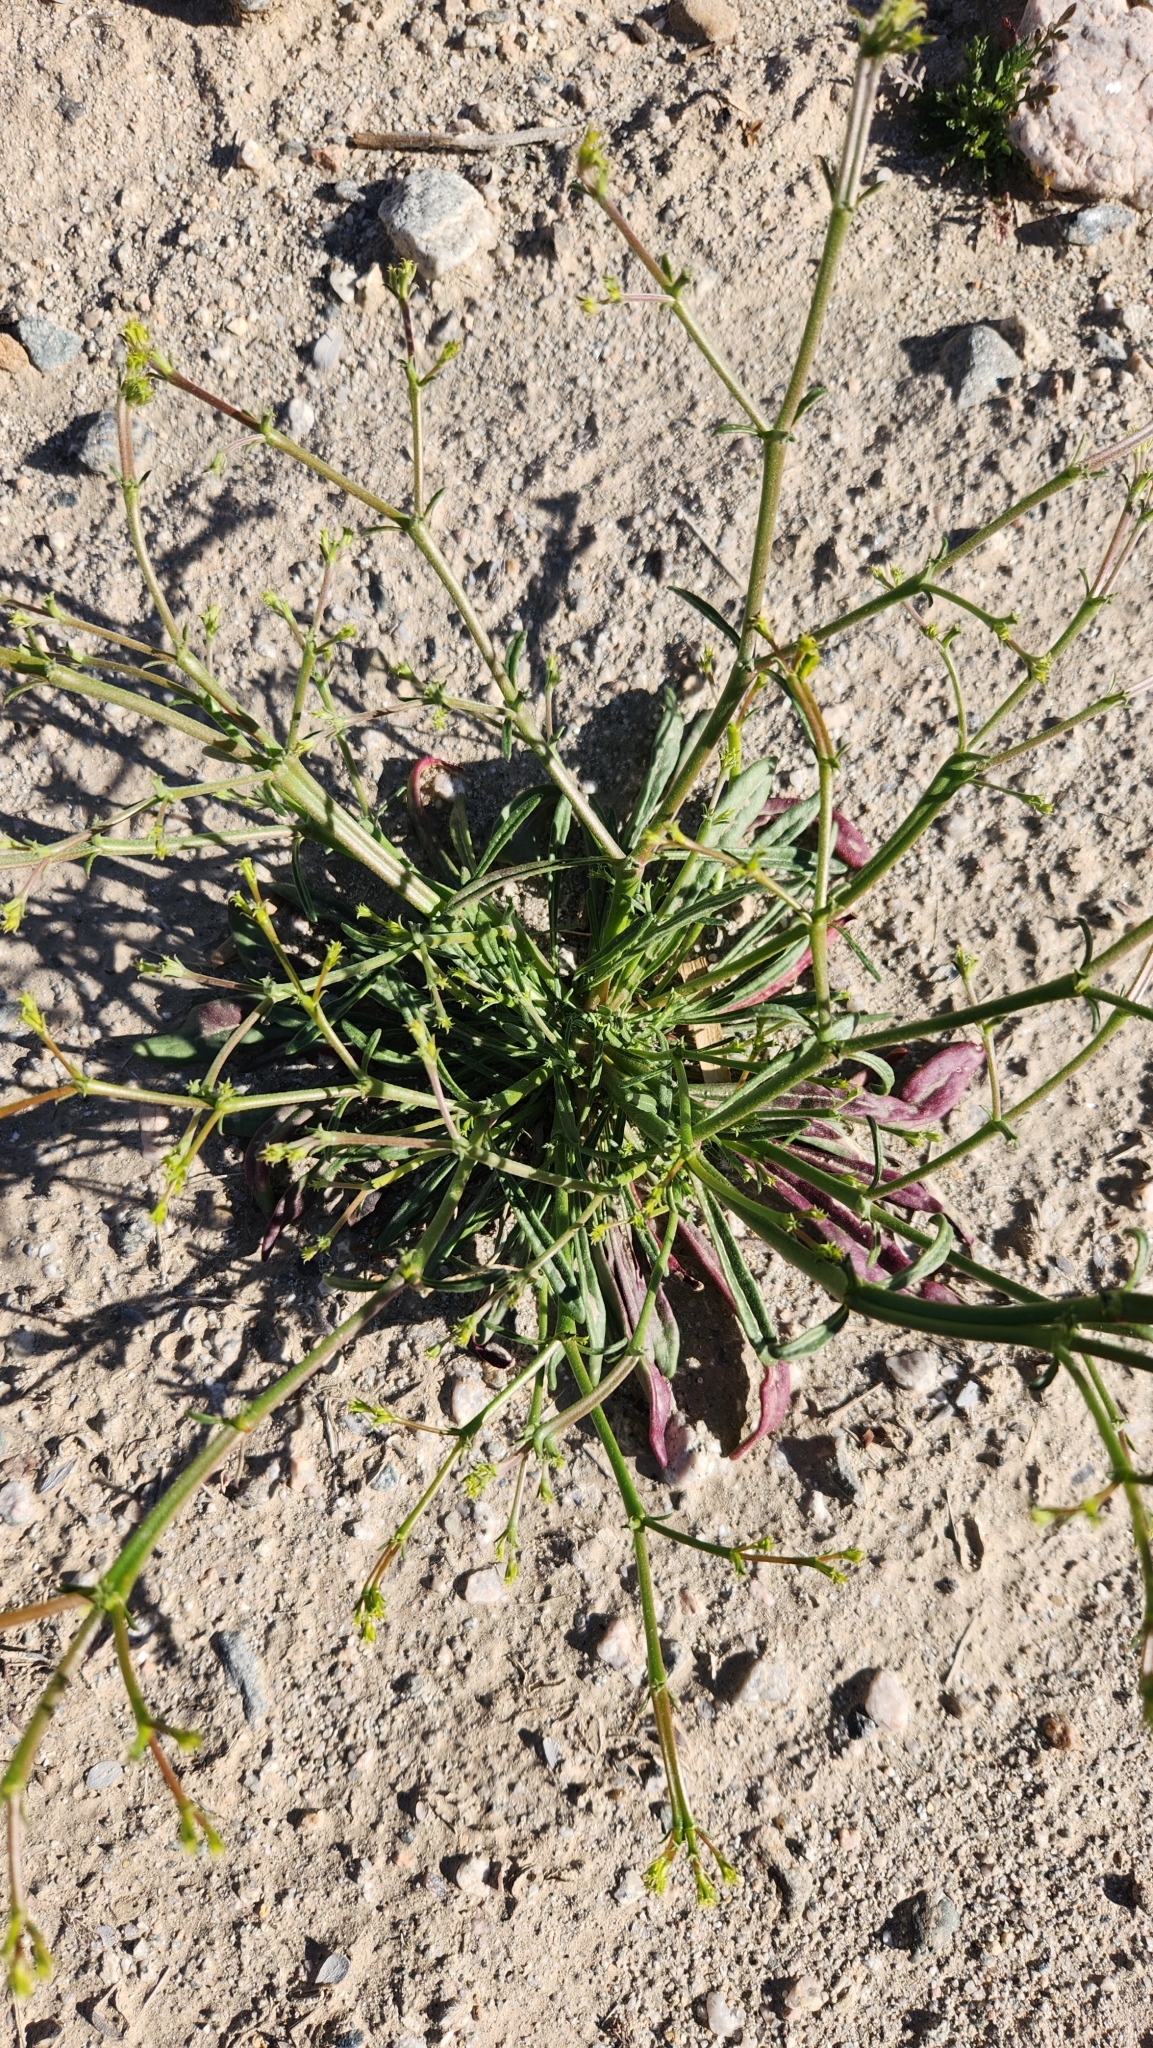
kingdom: Plantae
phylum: Tracheophyta
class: Magnoliopsida
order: Caryophyllales
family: Polygonaceae
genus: Chorizanthe
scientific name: Chorizanthe brevicornu
